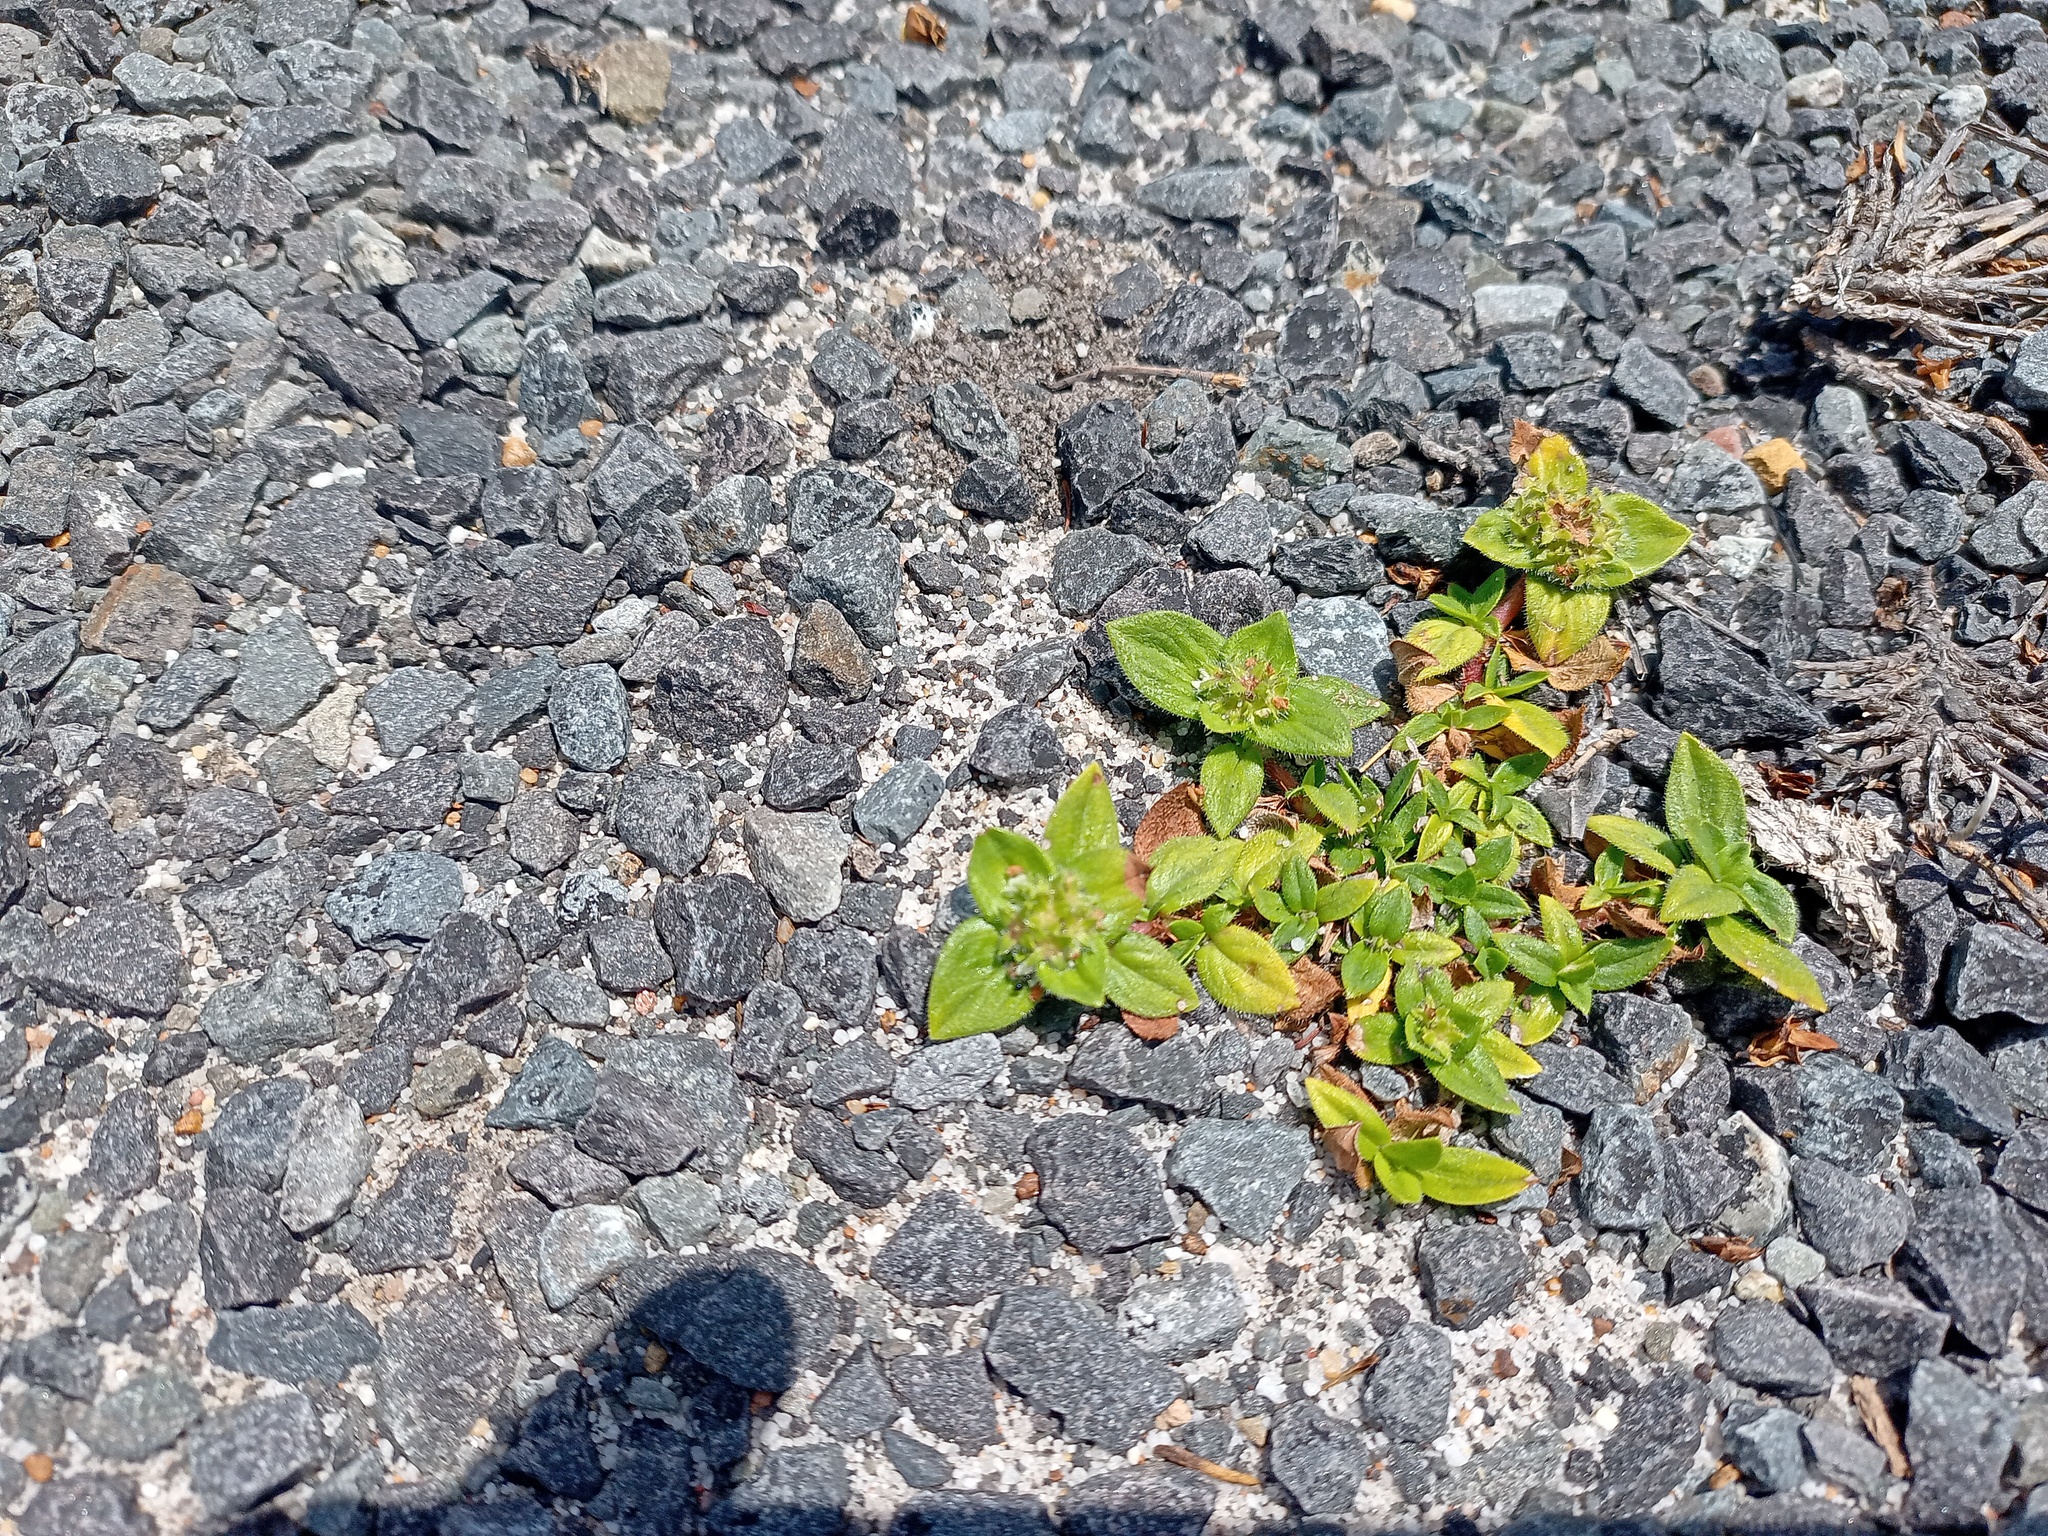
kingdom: Plantae
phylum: Tracheophyta
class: Magnoliopsida
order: Gentianales
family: Rubiaceae
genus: Richardia
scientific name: Richardia brasiliensis
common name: Tropical mexican clover
